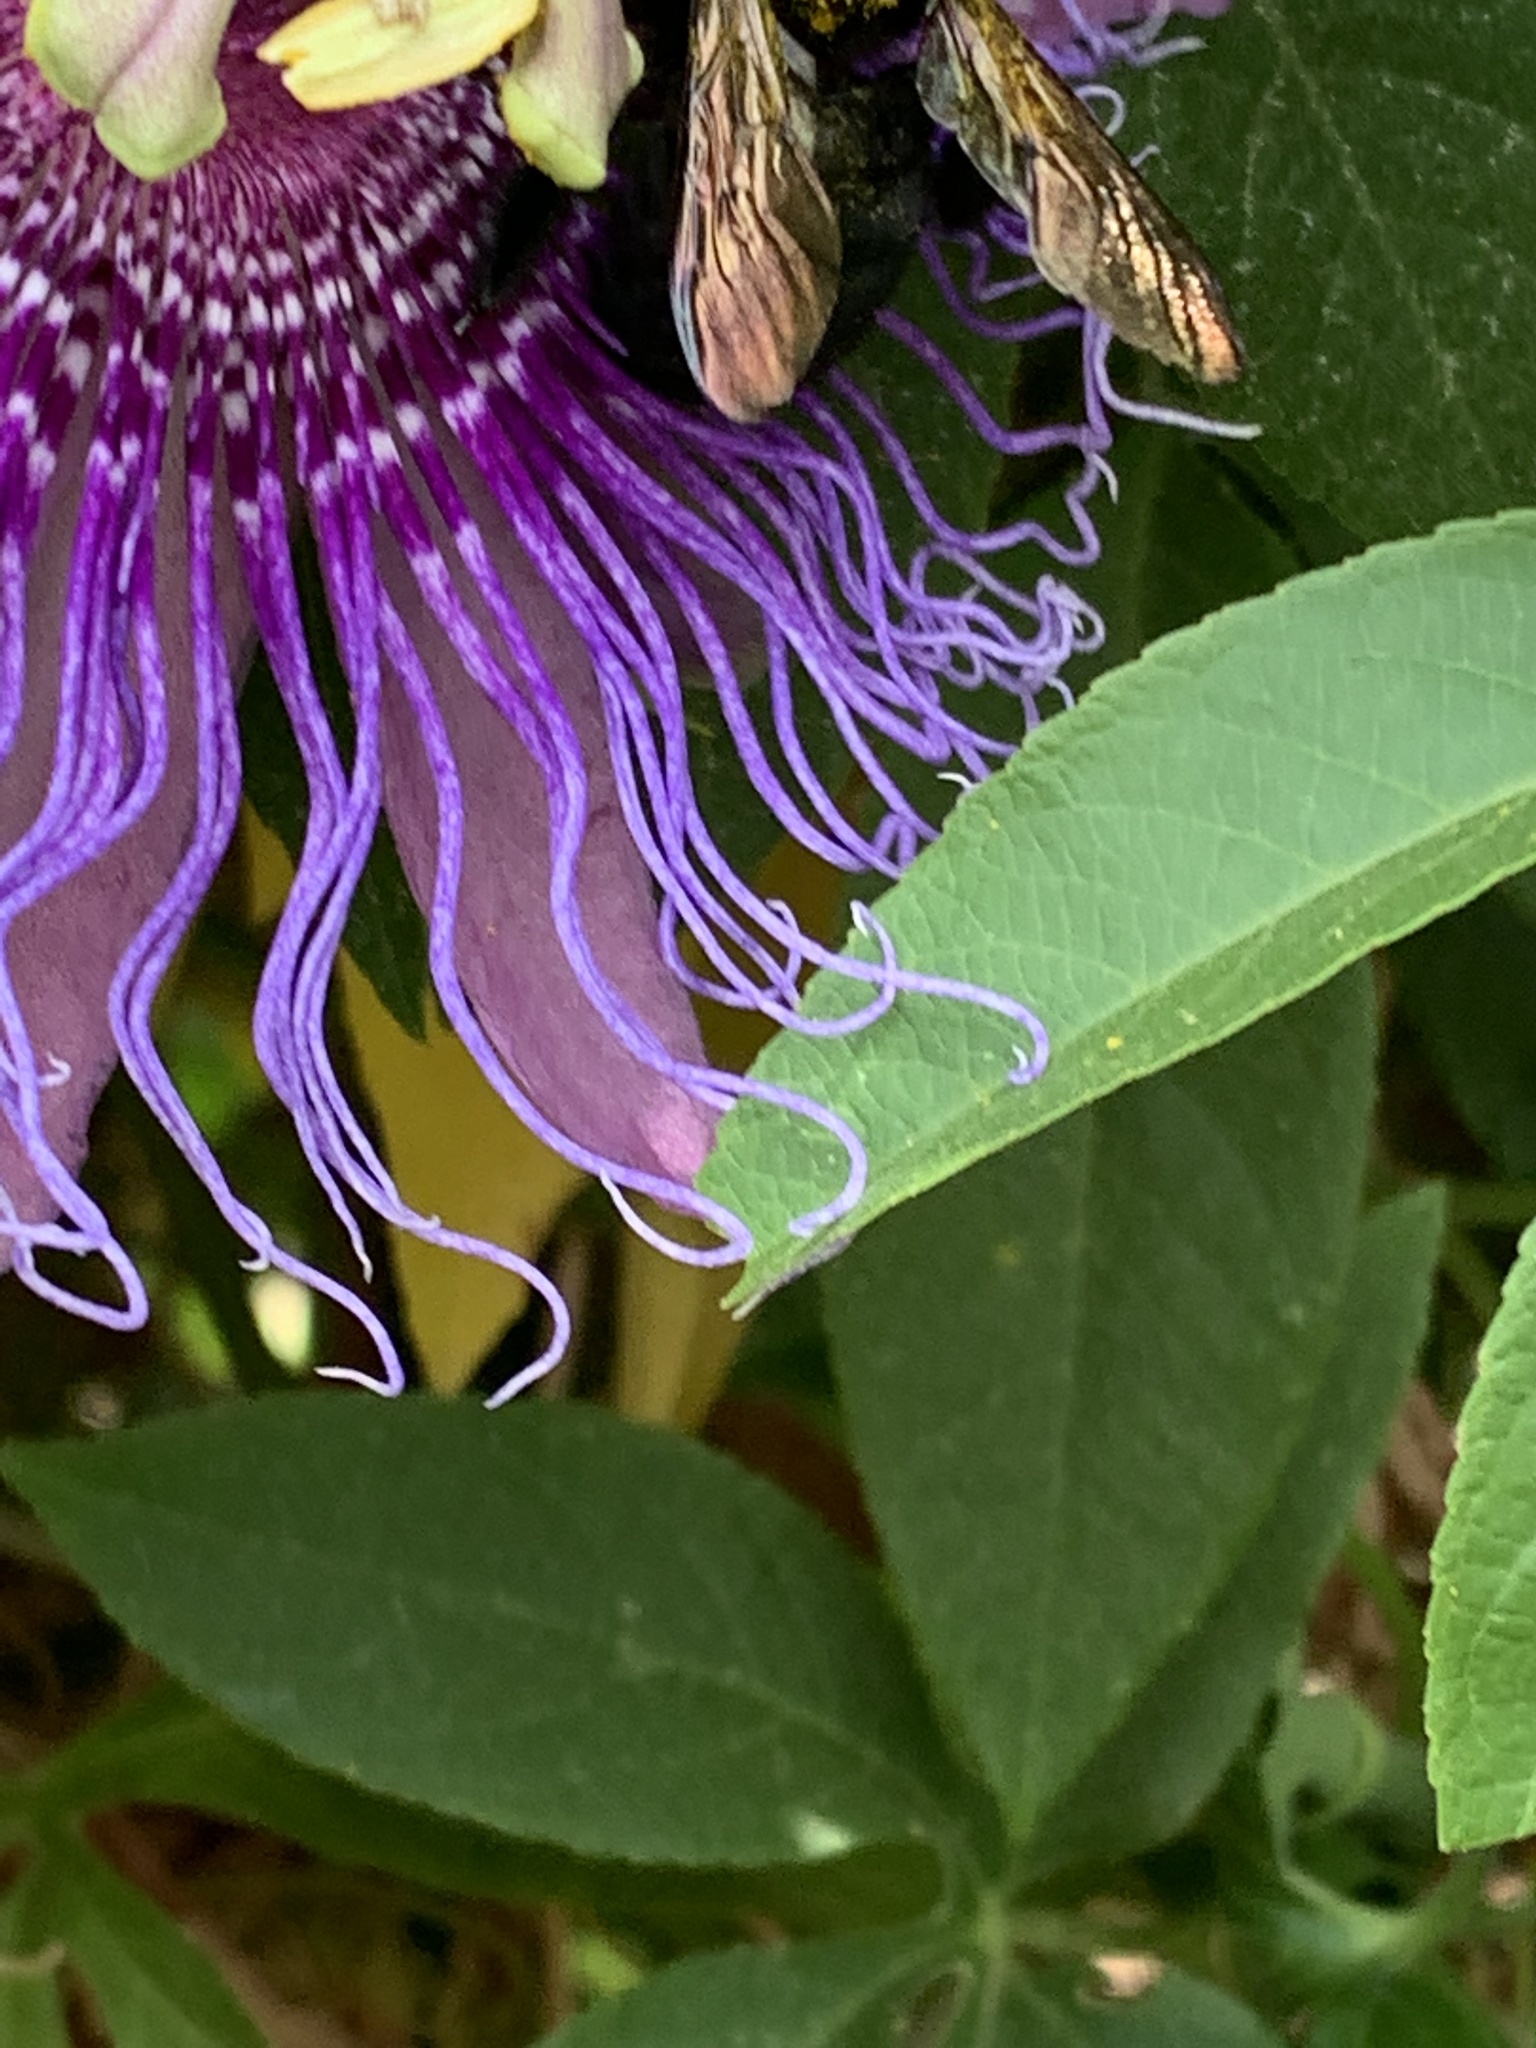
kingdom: Animalia
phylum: Arthropoda
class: Insecta
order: Hymenoptera
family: Apidae
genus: Xylocopa
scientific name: Xylocopa sonorina
